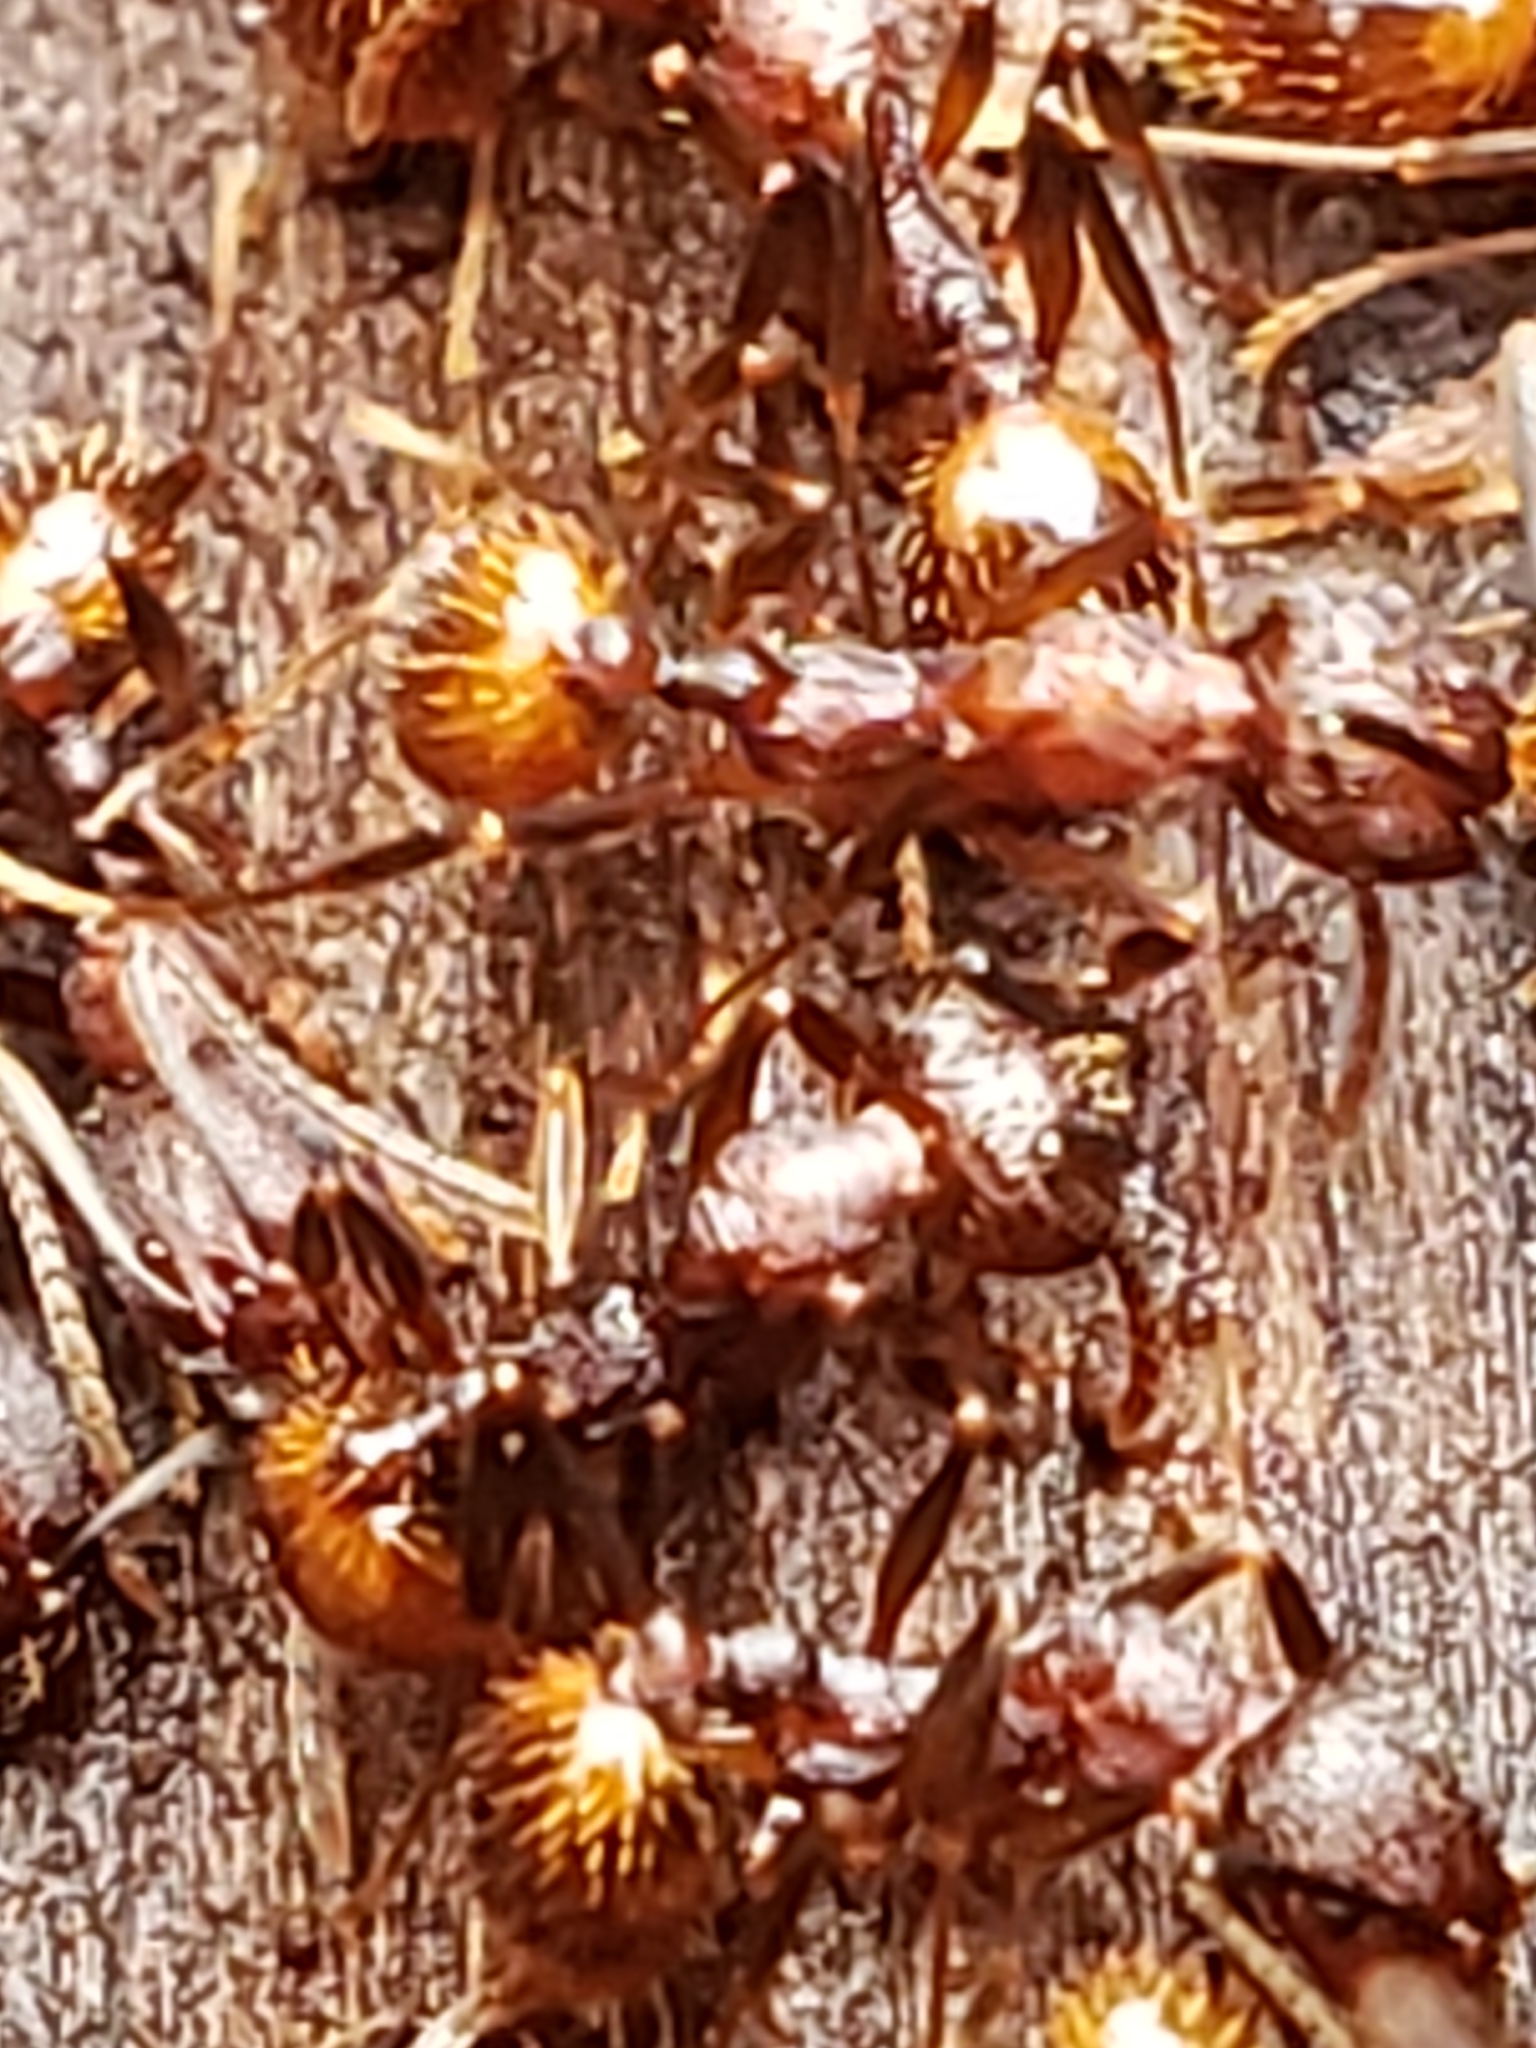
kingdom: Animalia
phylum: Arthropoda
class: Insecta
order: Hymenoptera
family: Formicidae
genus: Aphaenogaster
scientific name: Aphaenogaster fulva
